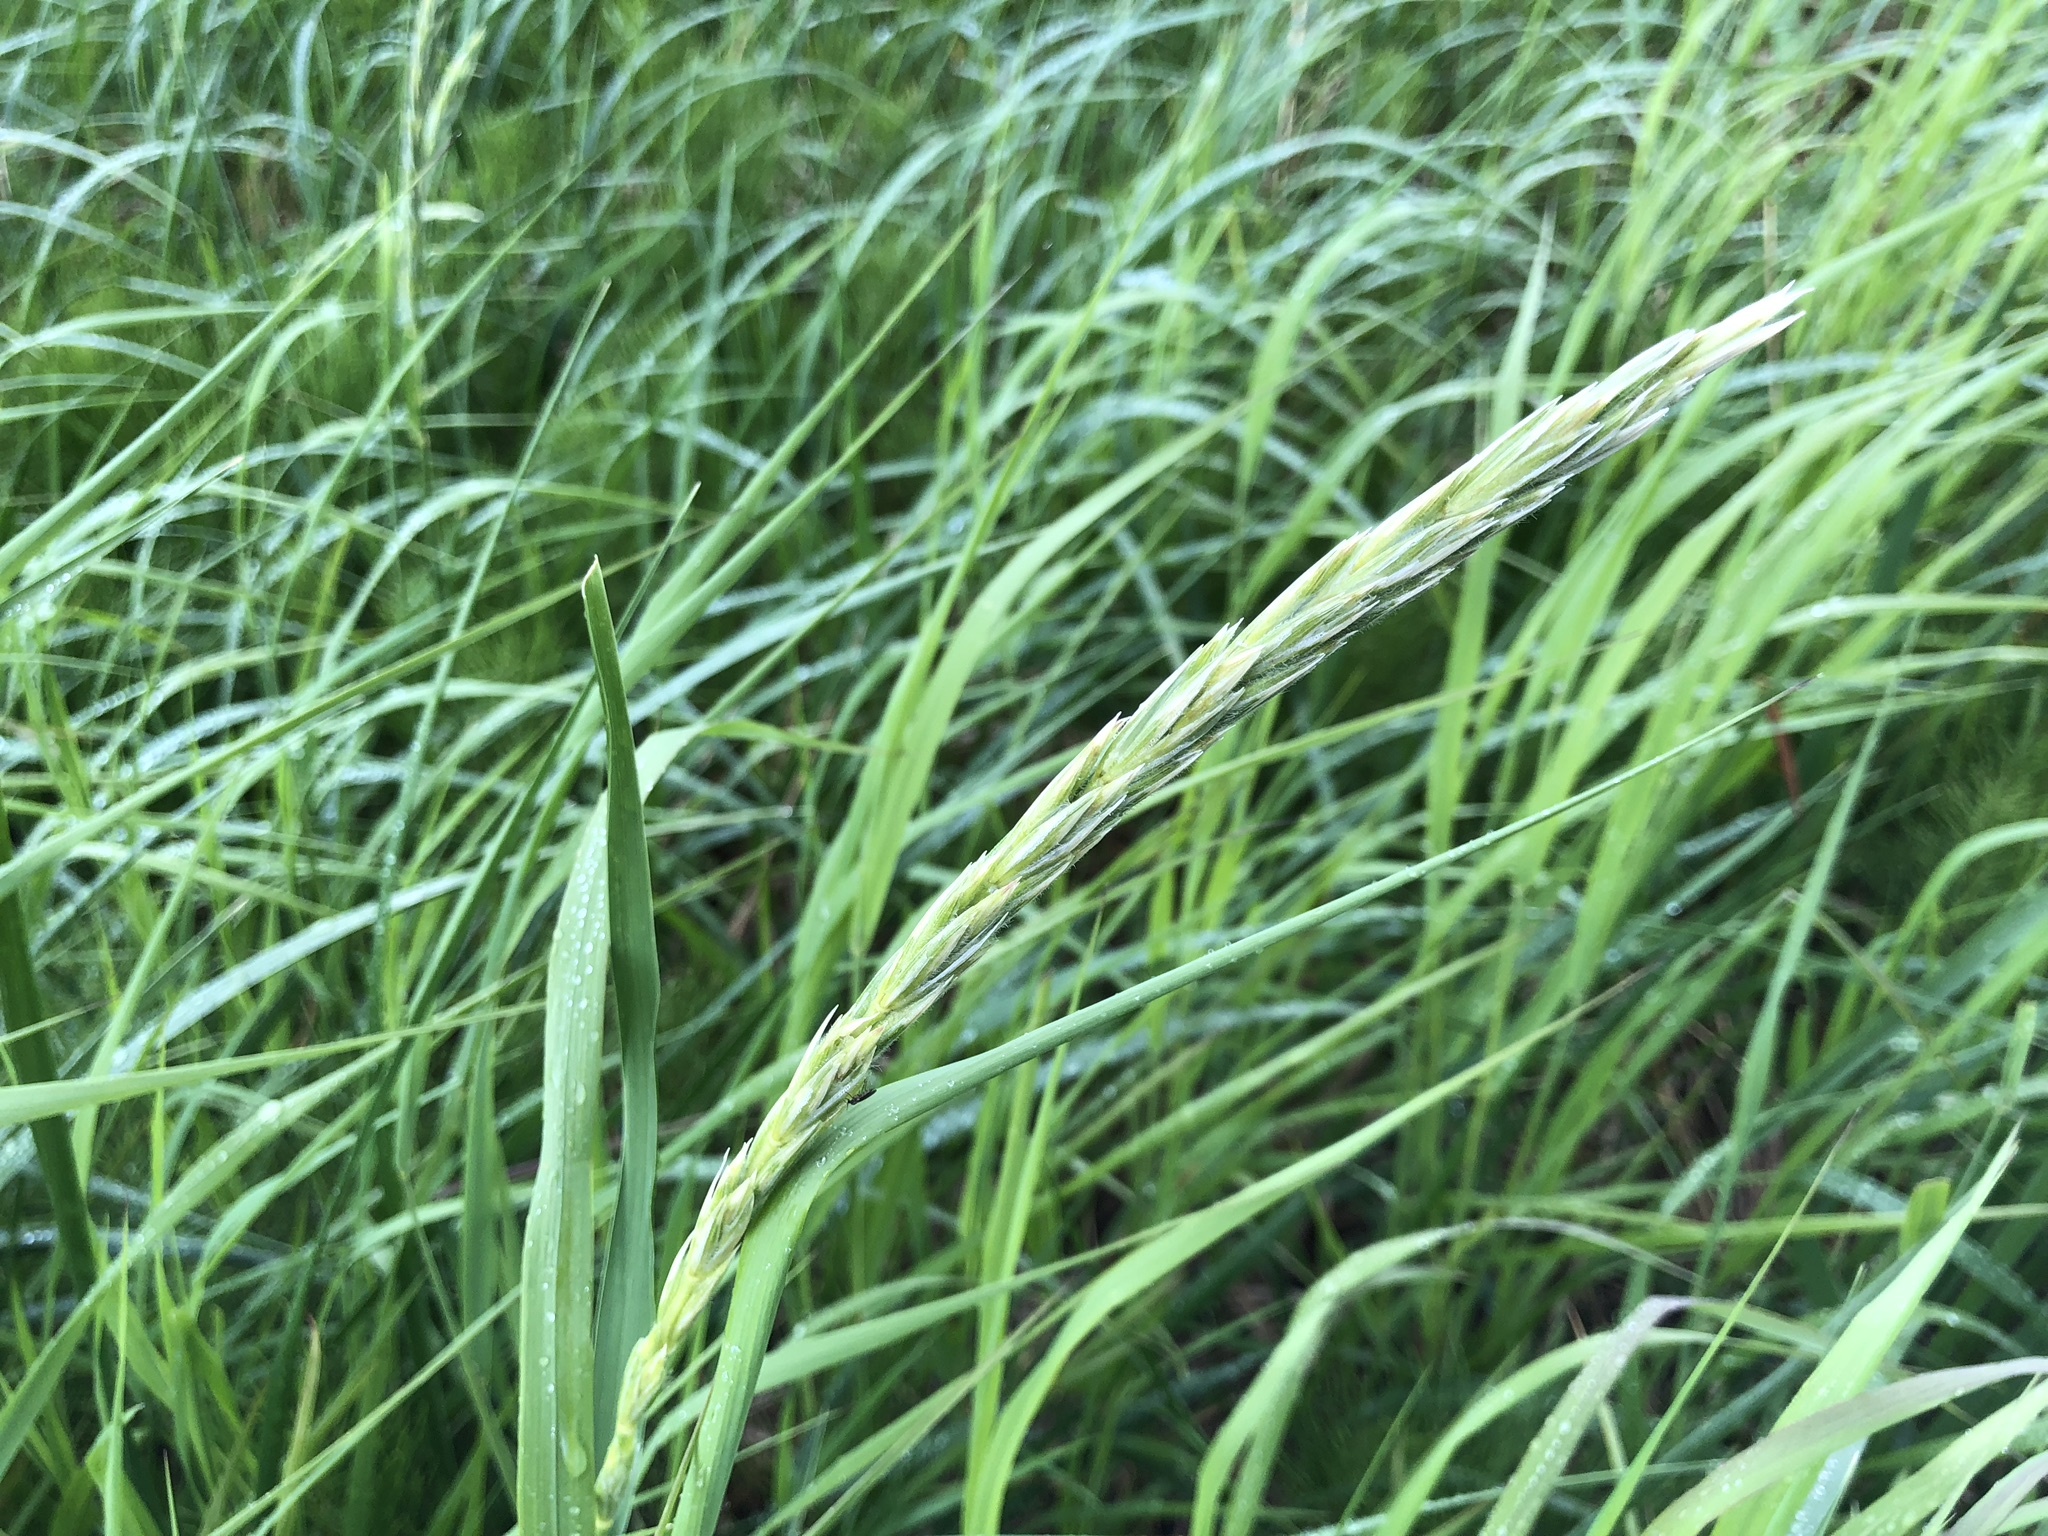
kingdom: Plantae
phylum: Tracheophyta
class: Liliopsida
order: Poales
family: Poaceae
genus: Leymus
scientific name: Leymus mollis
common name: American dune grass
